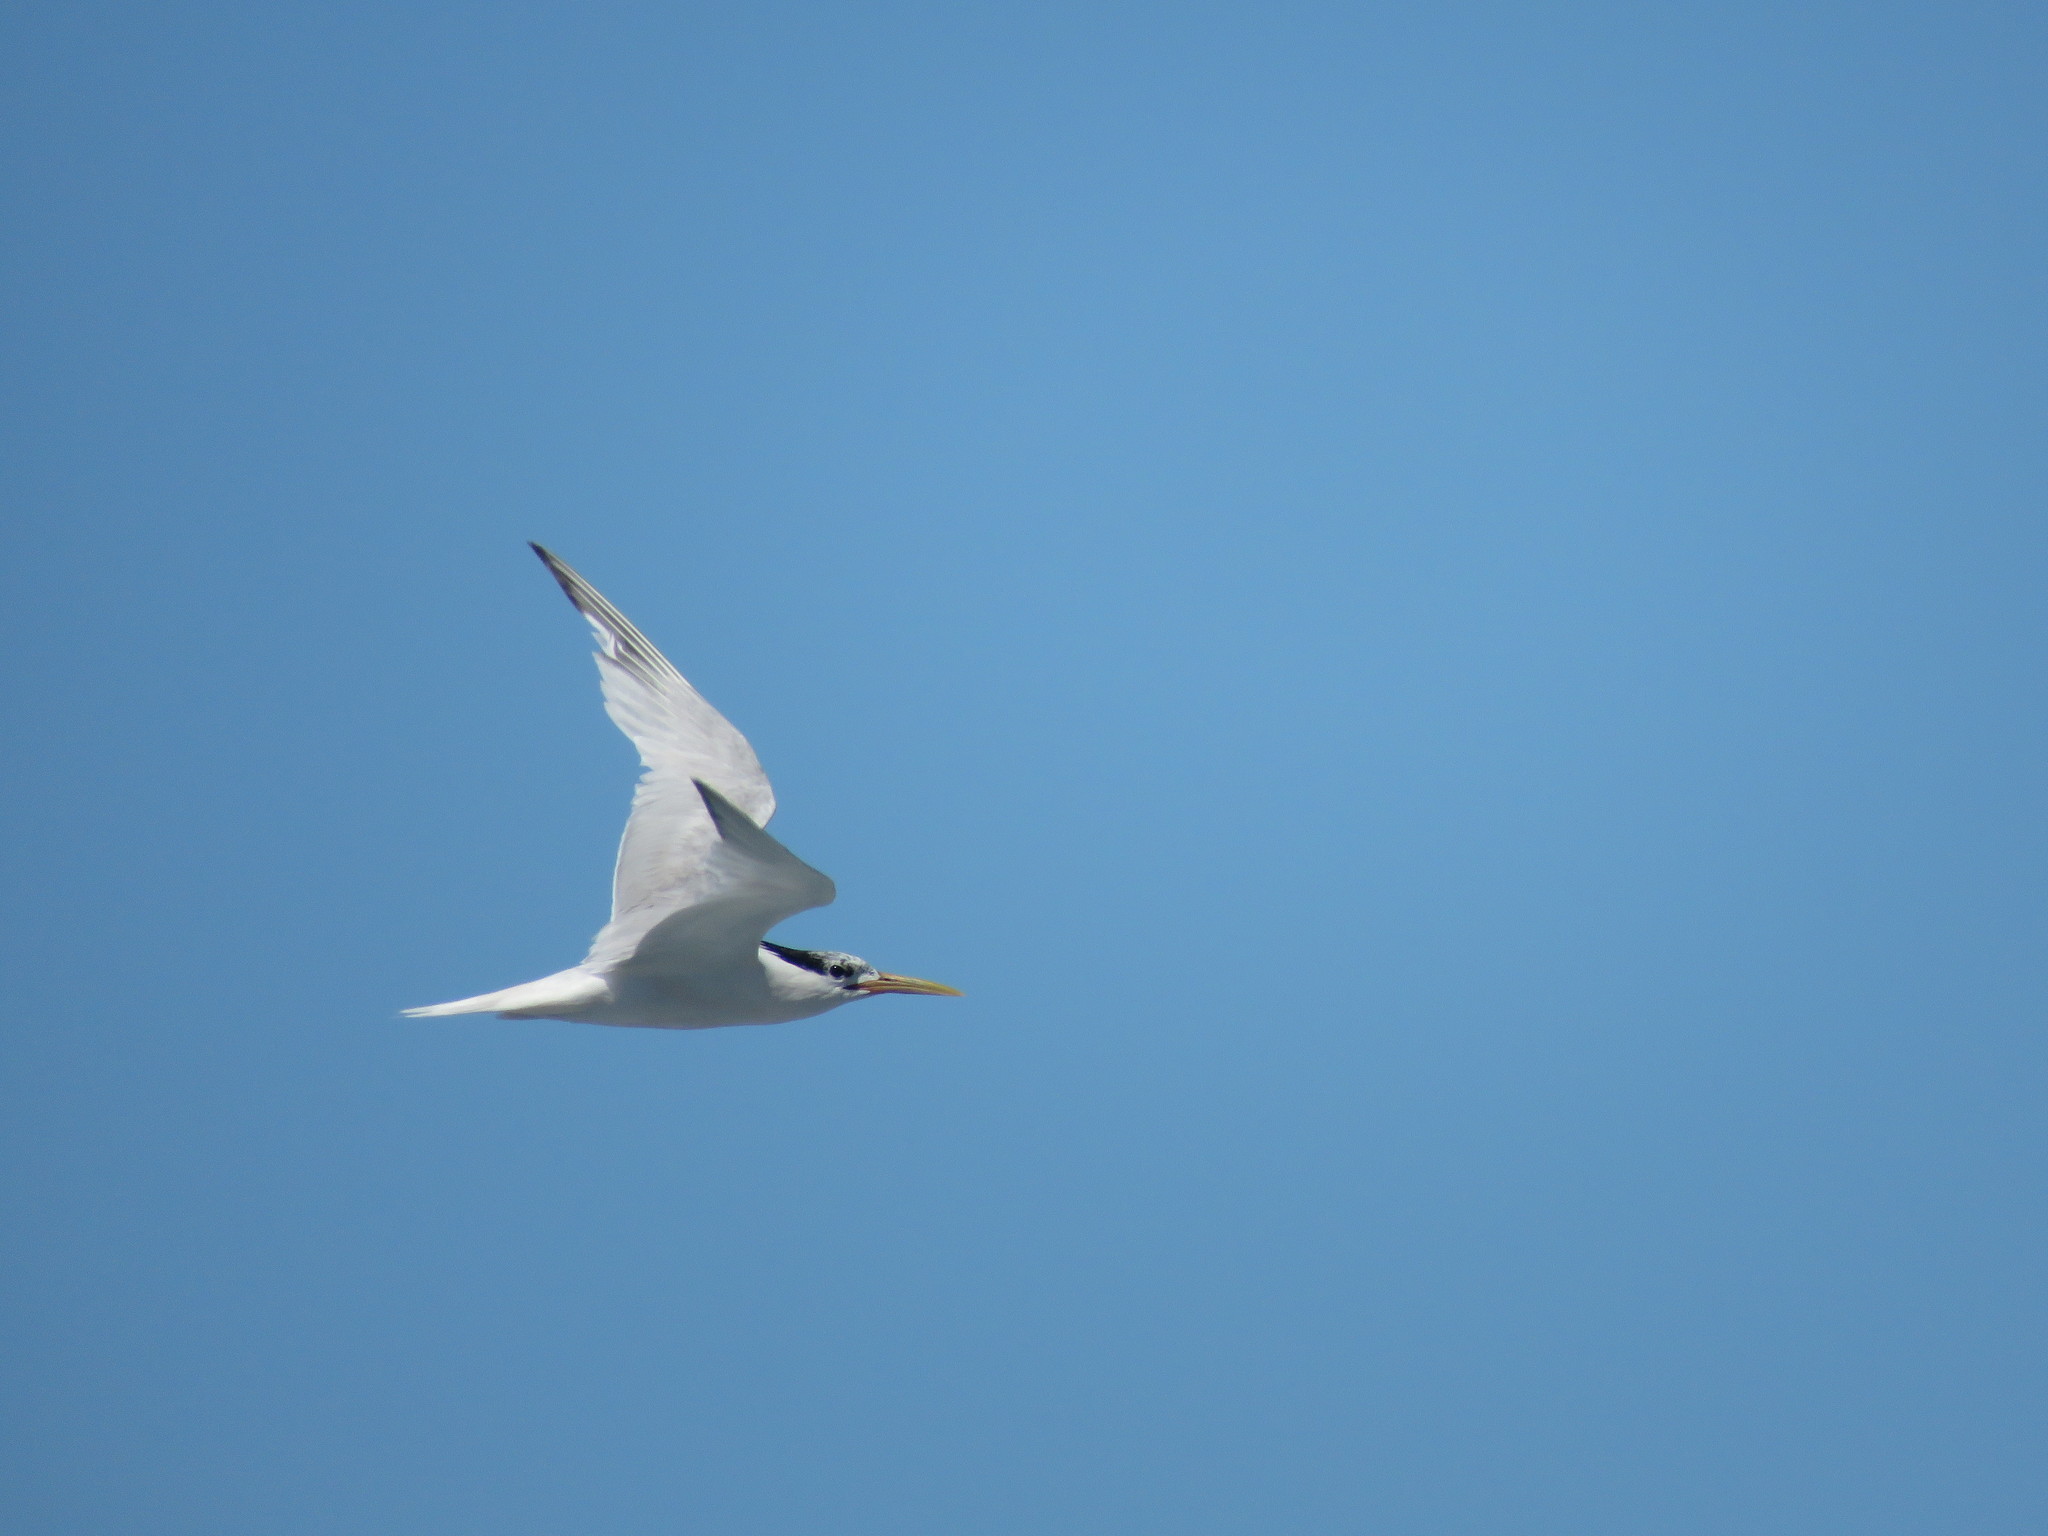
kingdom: Animalia
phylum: Chordata
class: Aves
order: Charadriiformes
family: Laridae
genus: Thalasseus
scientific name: Thalasseus sandvicensis
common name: Sandwich tern
